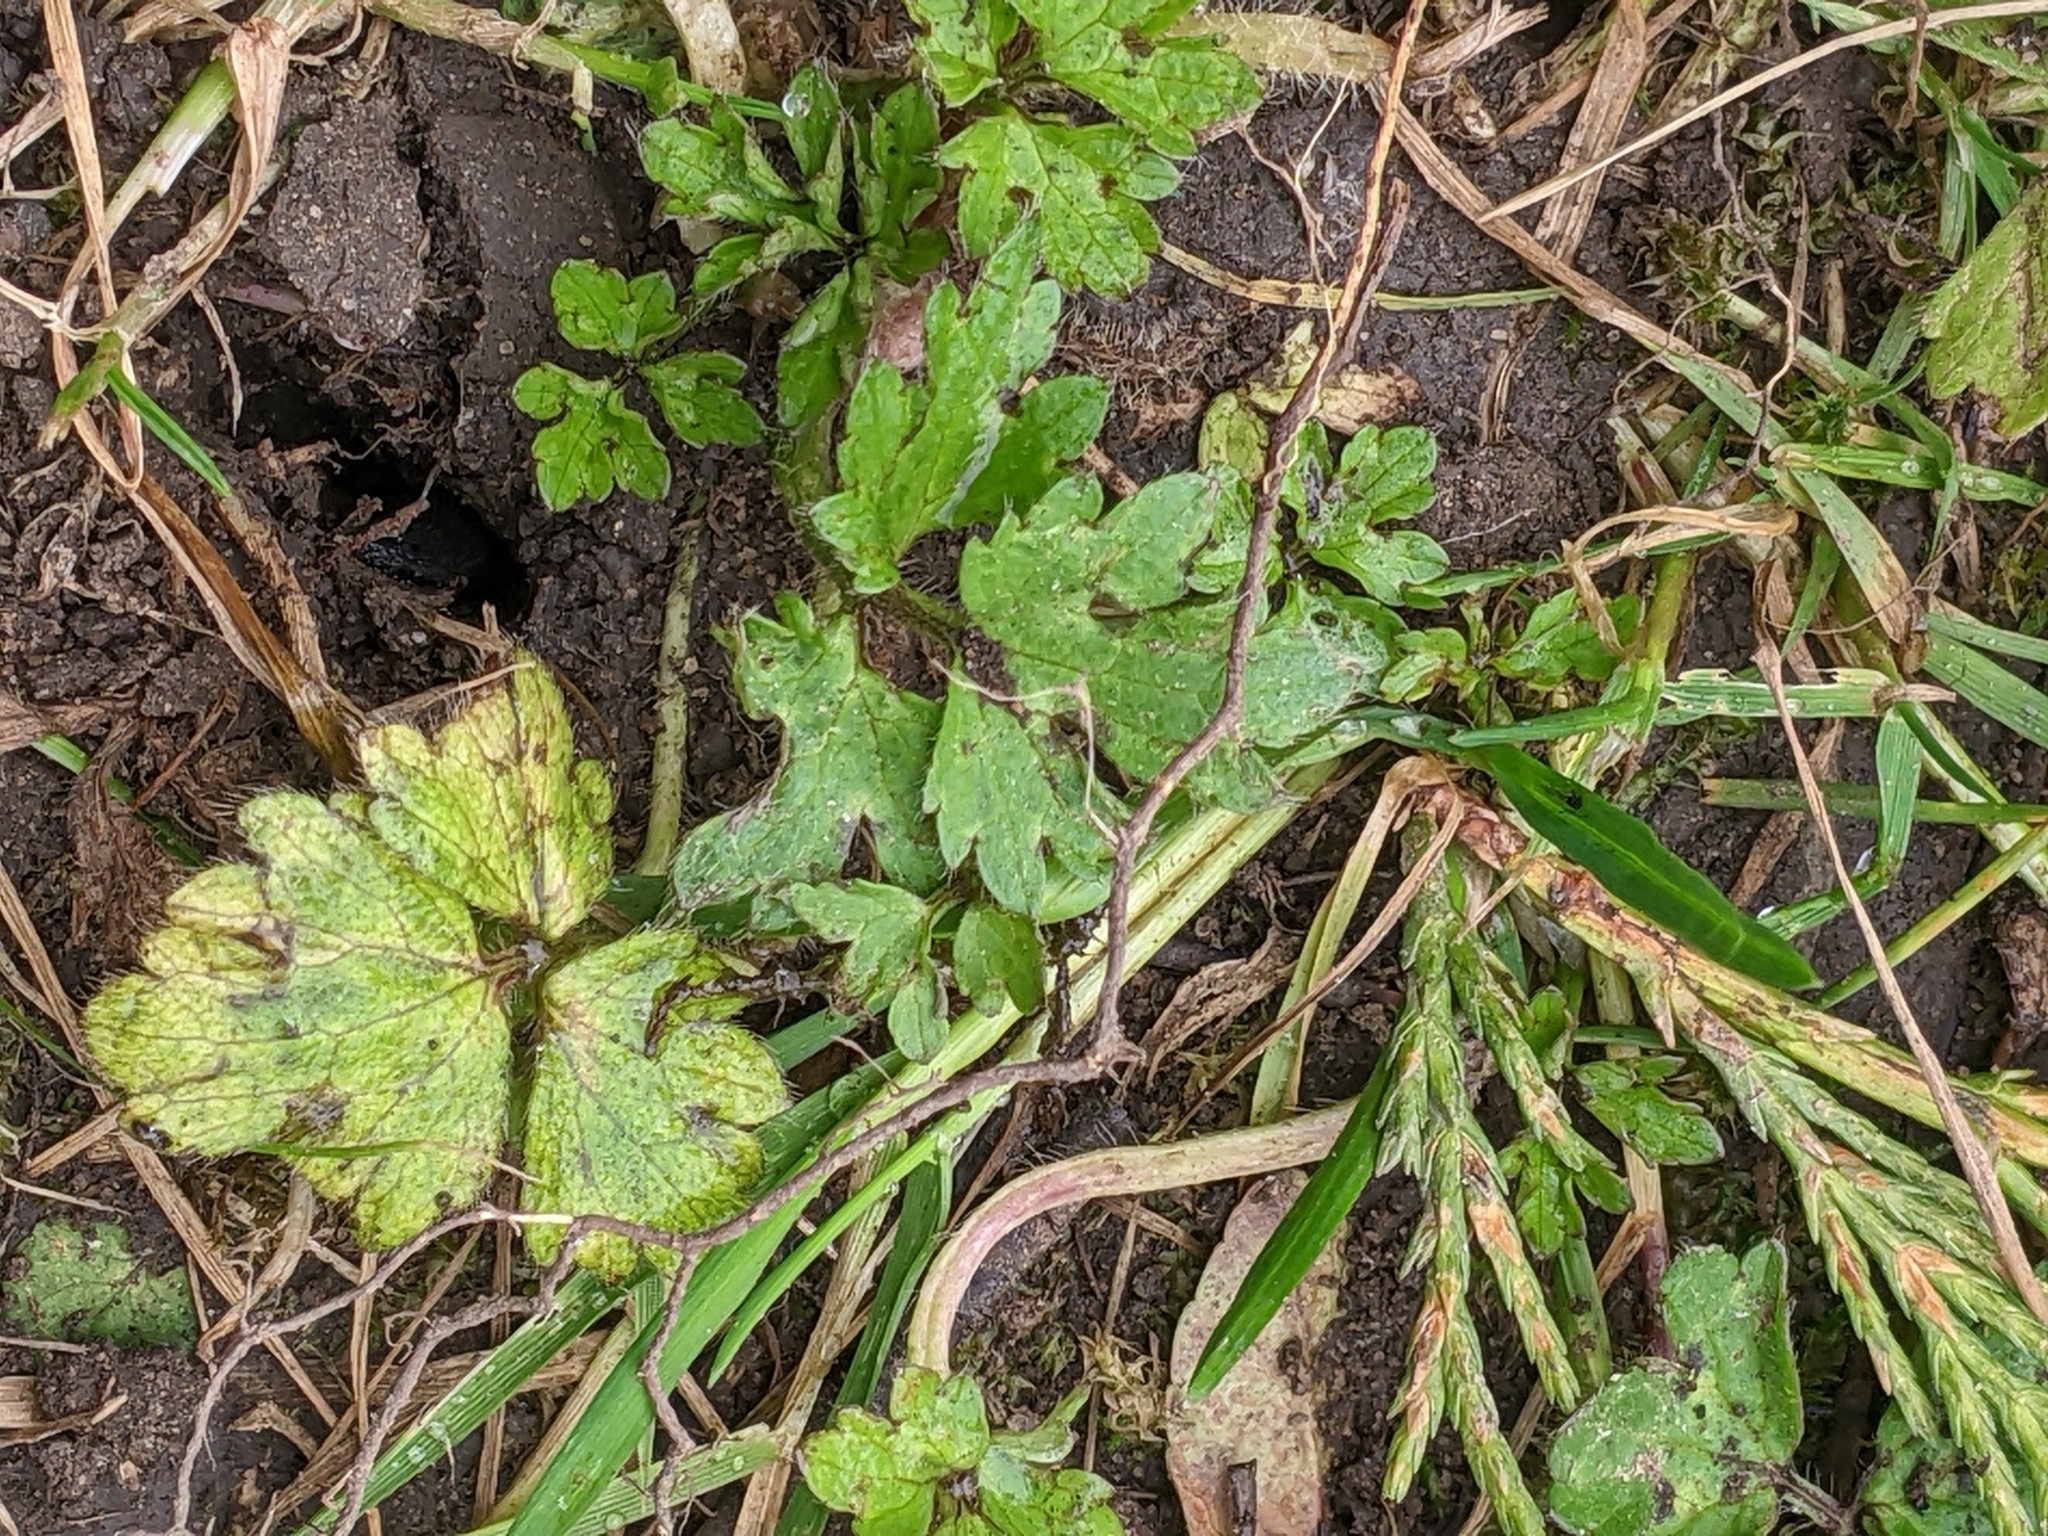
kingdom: Plantae
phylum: Tracheophyta
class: Magnoliopsida
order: Ranunculales
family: Ranunculaceae
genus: Ranunculus
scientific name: Ranunculus repens
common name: Creeping buttercup
